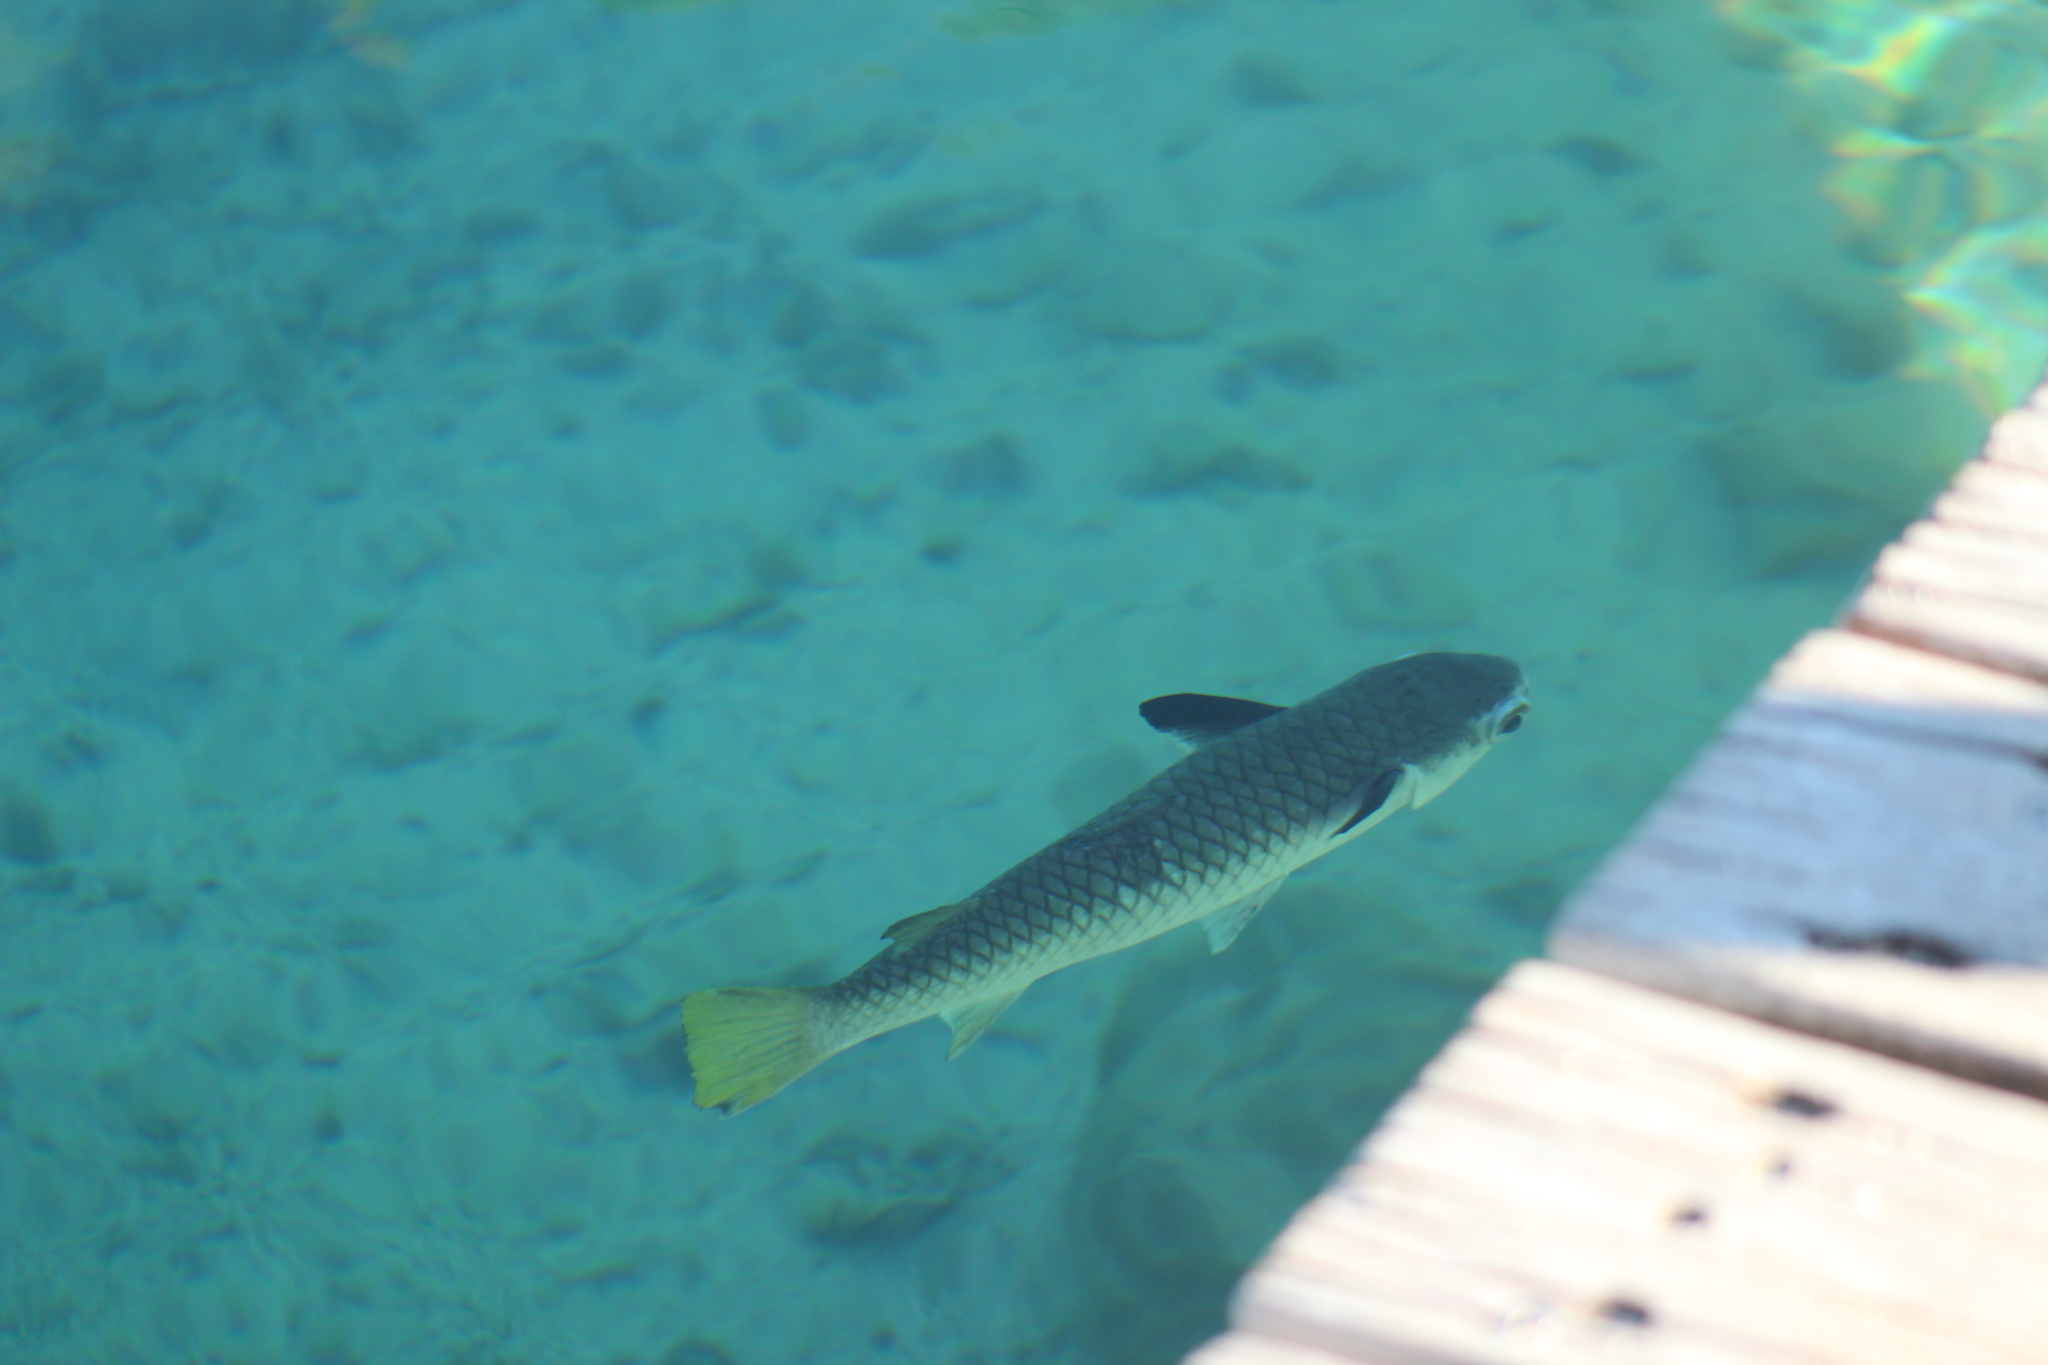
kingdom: Animalia
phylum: Chordata
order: Mugiliformes
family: Mugilidae
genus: Ellochelon
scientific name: Ellochelon vaigiensis
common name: Squaretail mullet
